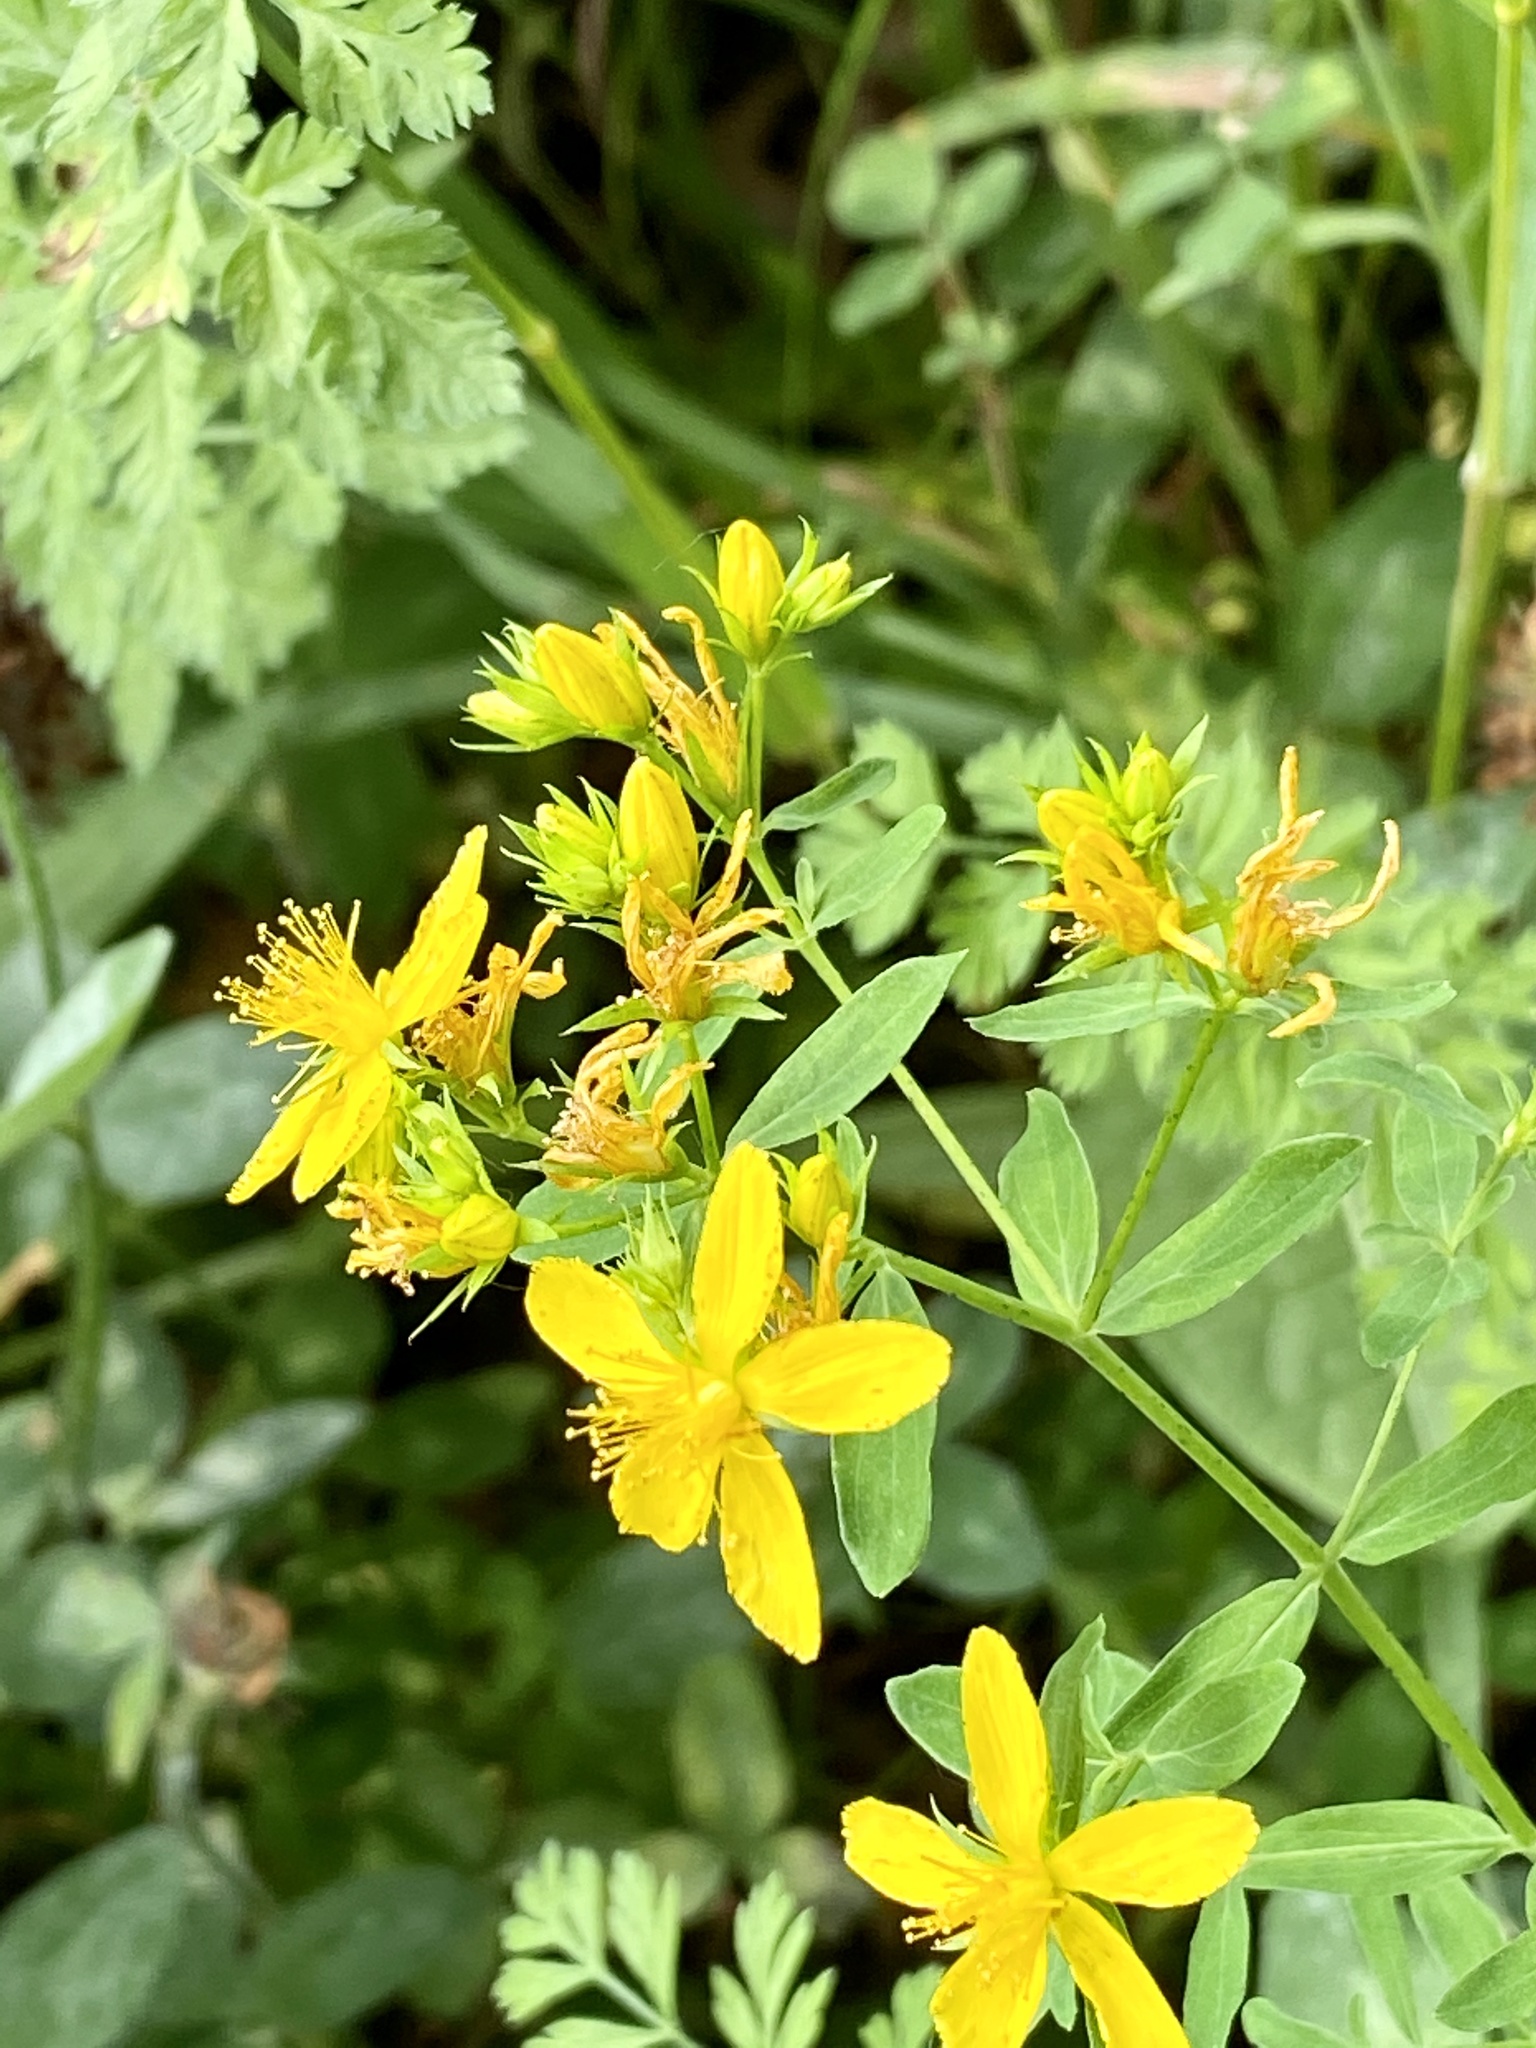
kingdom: Plantae
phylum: Tracheophyta
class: Magnoliopsida
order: Malpighiales
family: Hypericaceae
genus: Hypericum
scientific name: Hypericum perforatum
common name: Common st. johnswort
